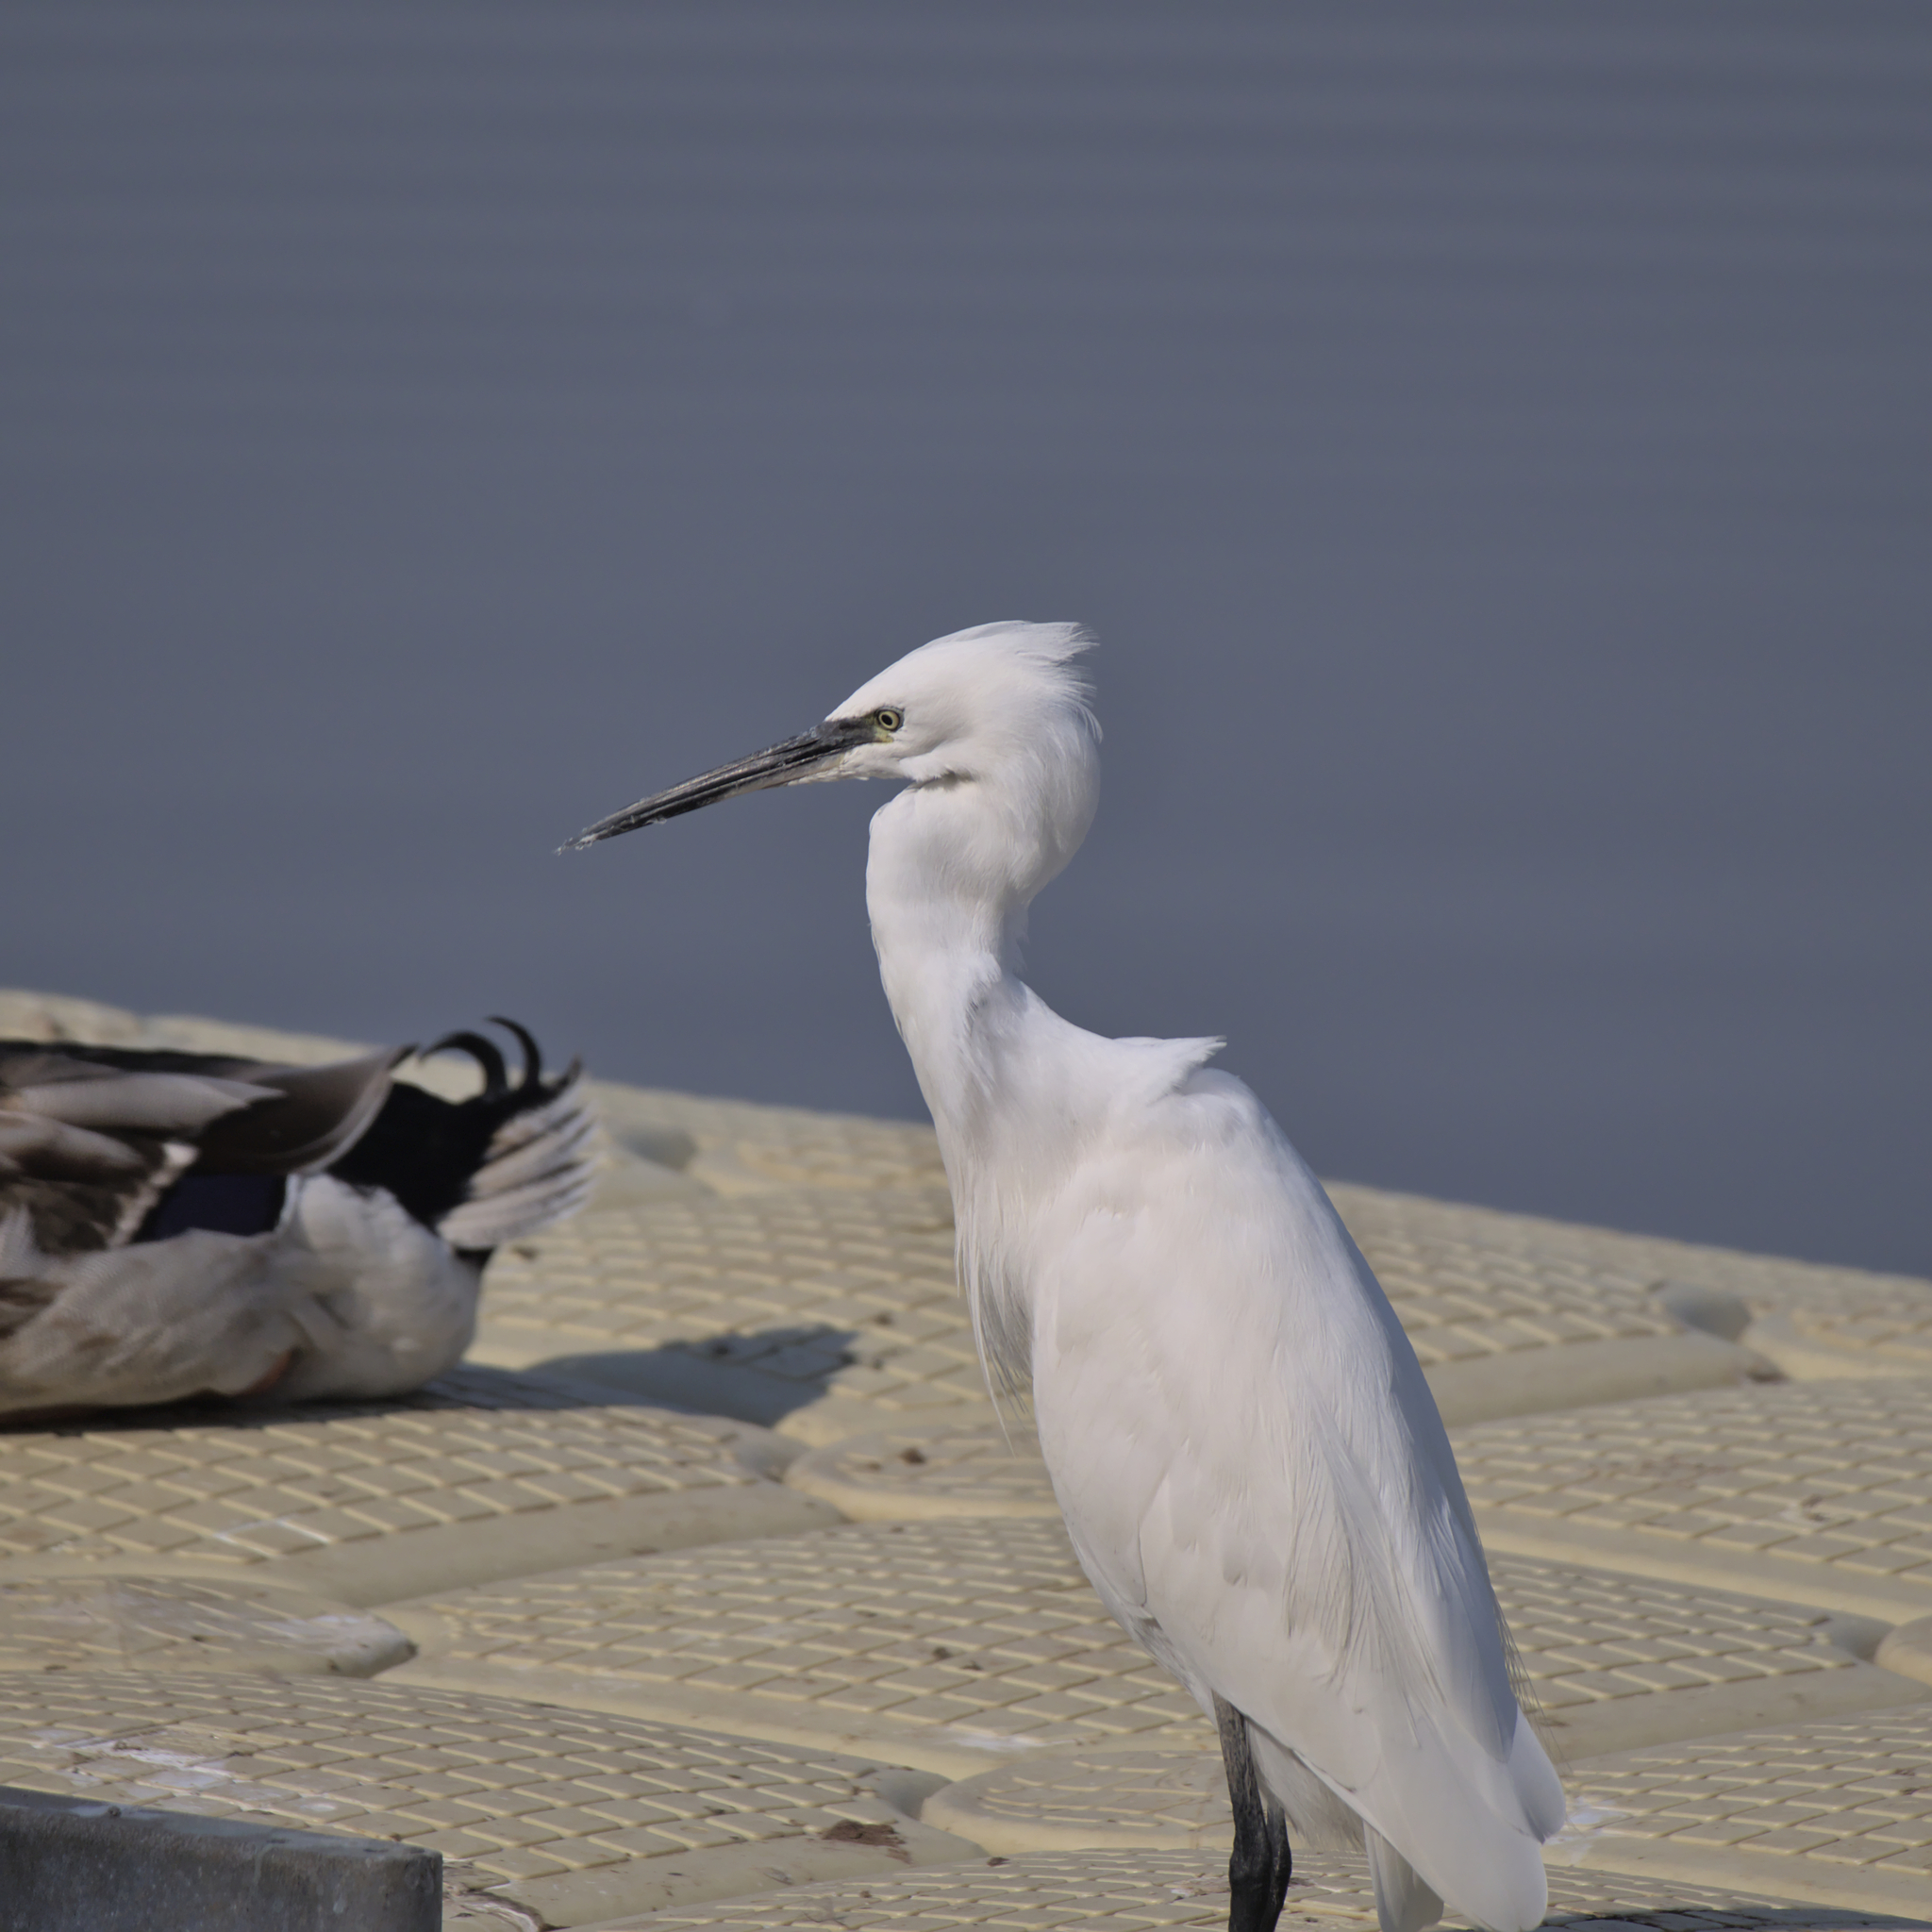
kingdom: Animalia
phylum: Chordata
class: Aves
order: Pelecaniformes
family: Ardeidae
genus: Egretta
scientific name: Egretta garzetta
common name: Little egret
